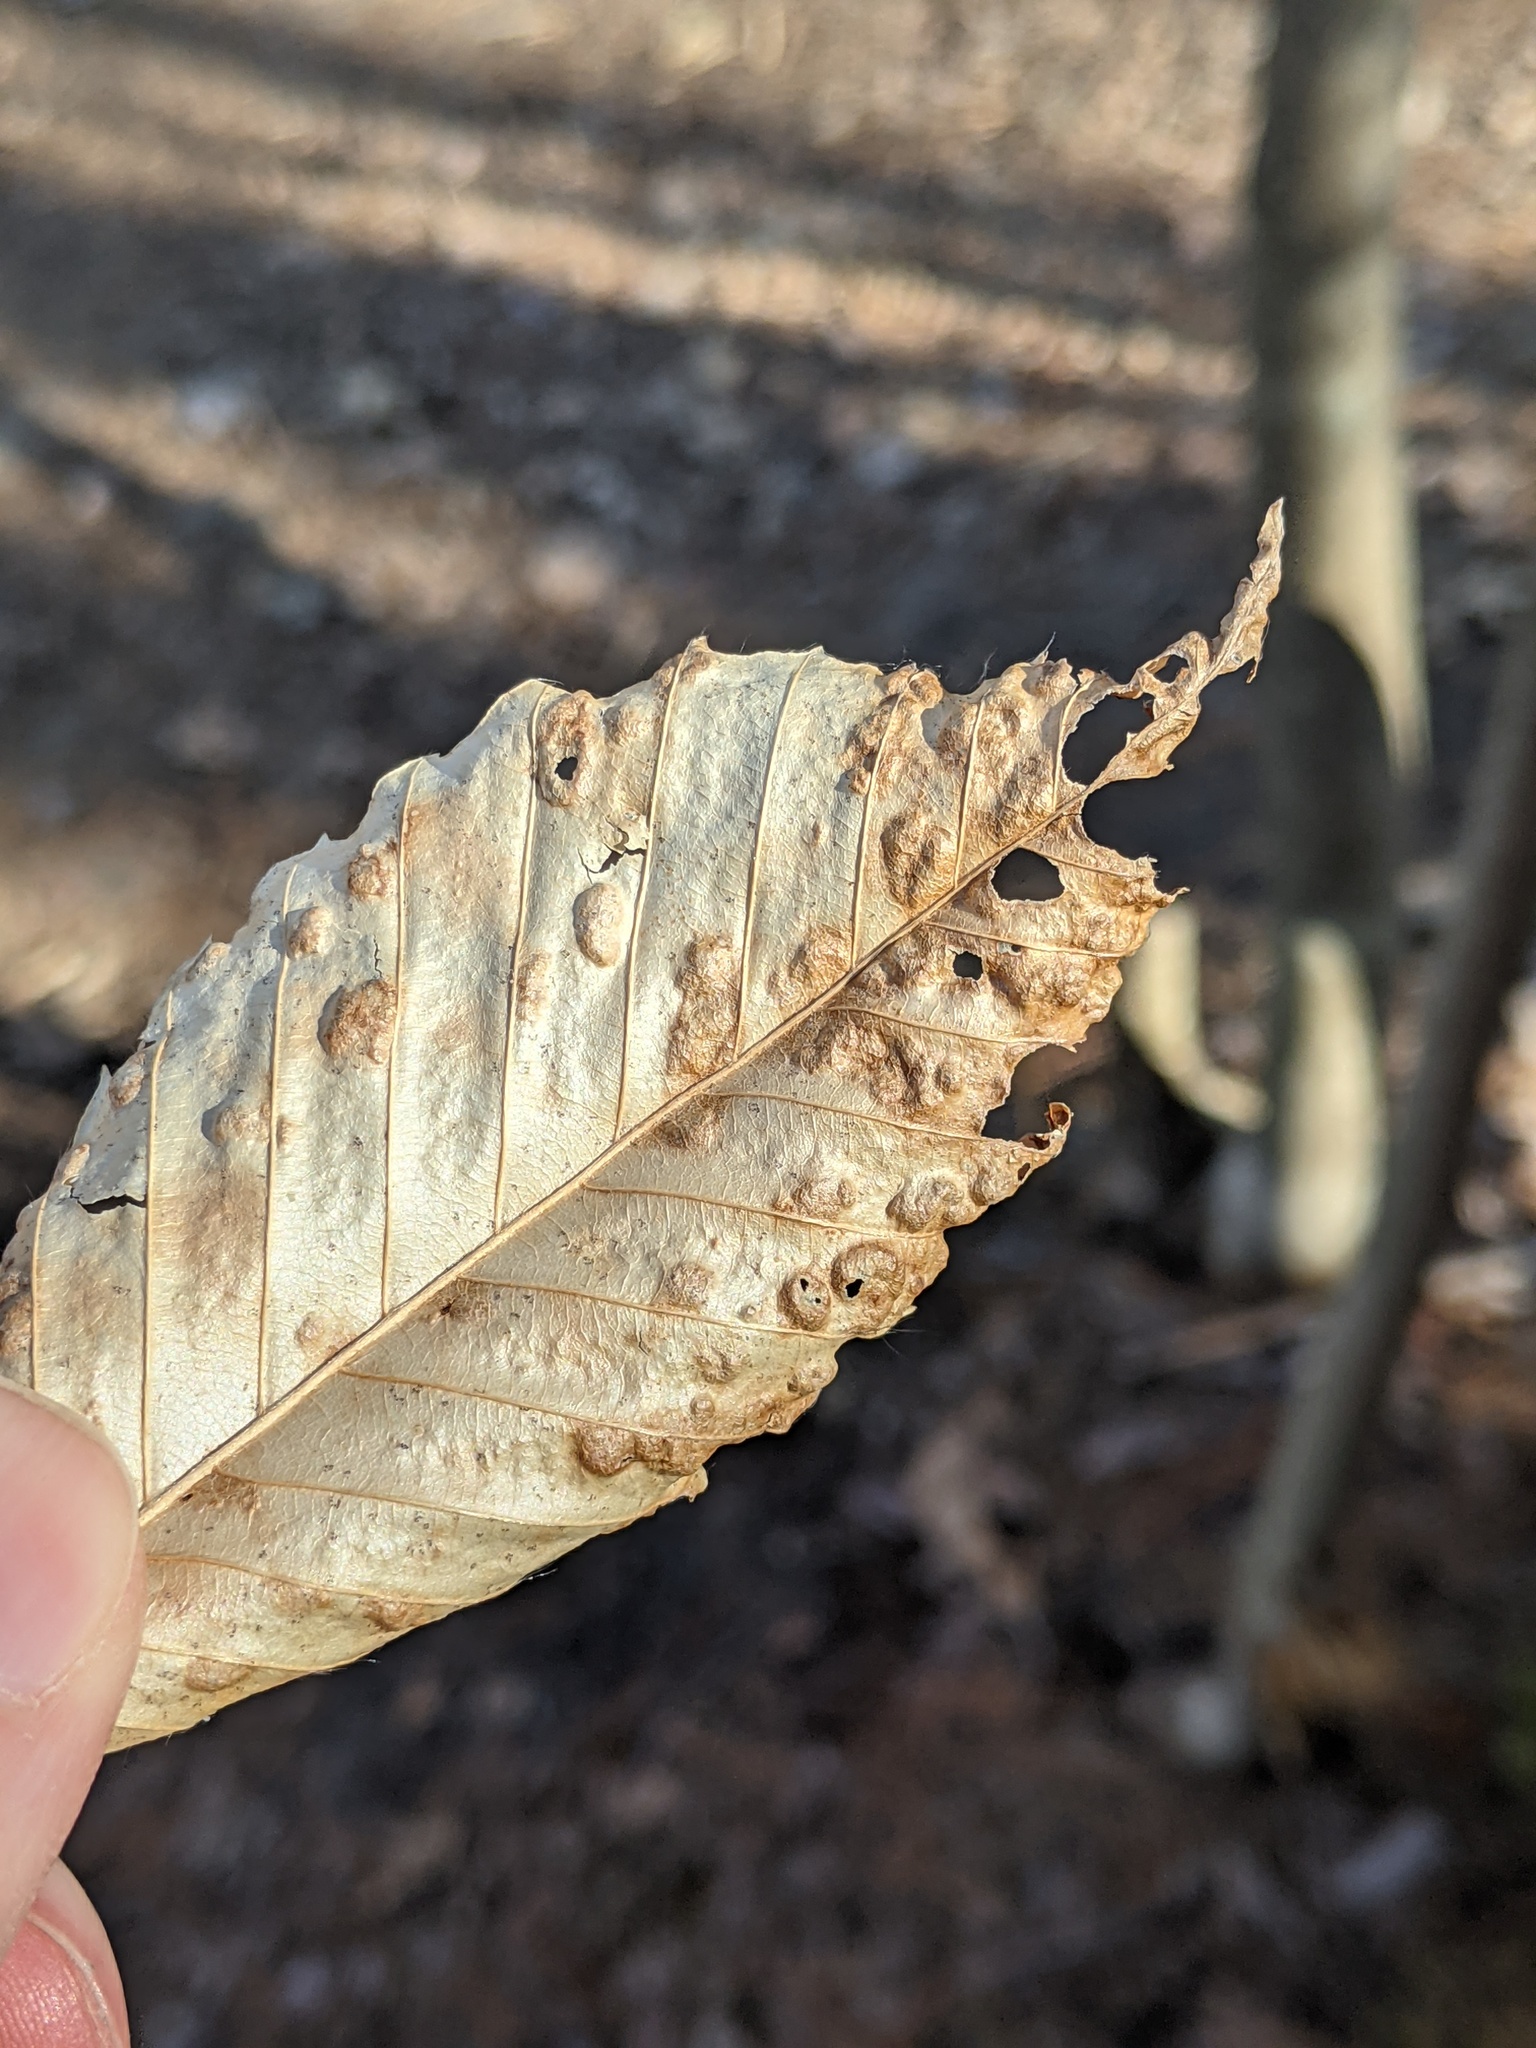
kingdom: Animalia
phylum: Arthropoda
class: Arachnida
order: Trombidiformes
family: Eriophyidae
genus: Acalitus
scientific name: Acalitus
